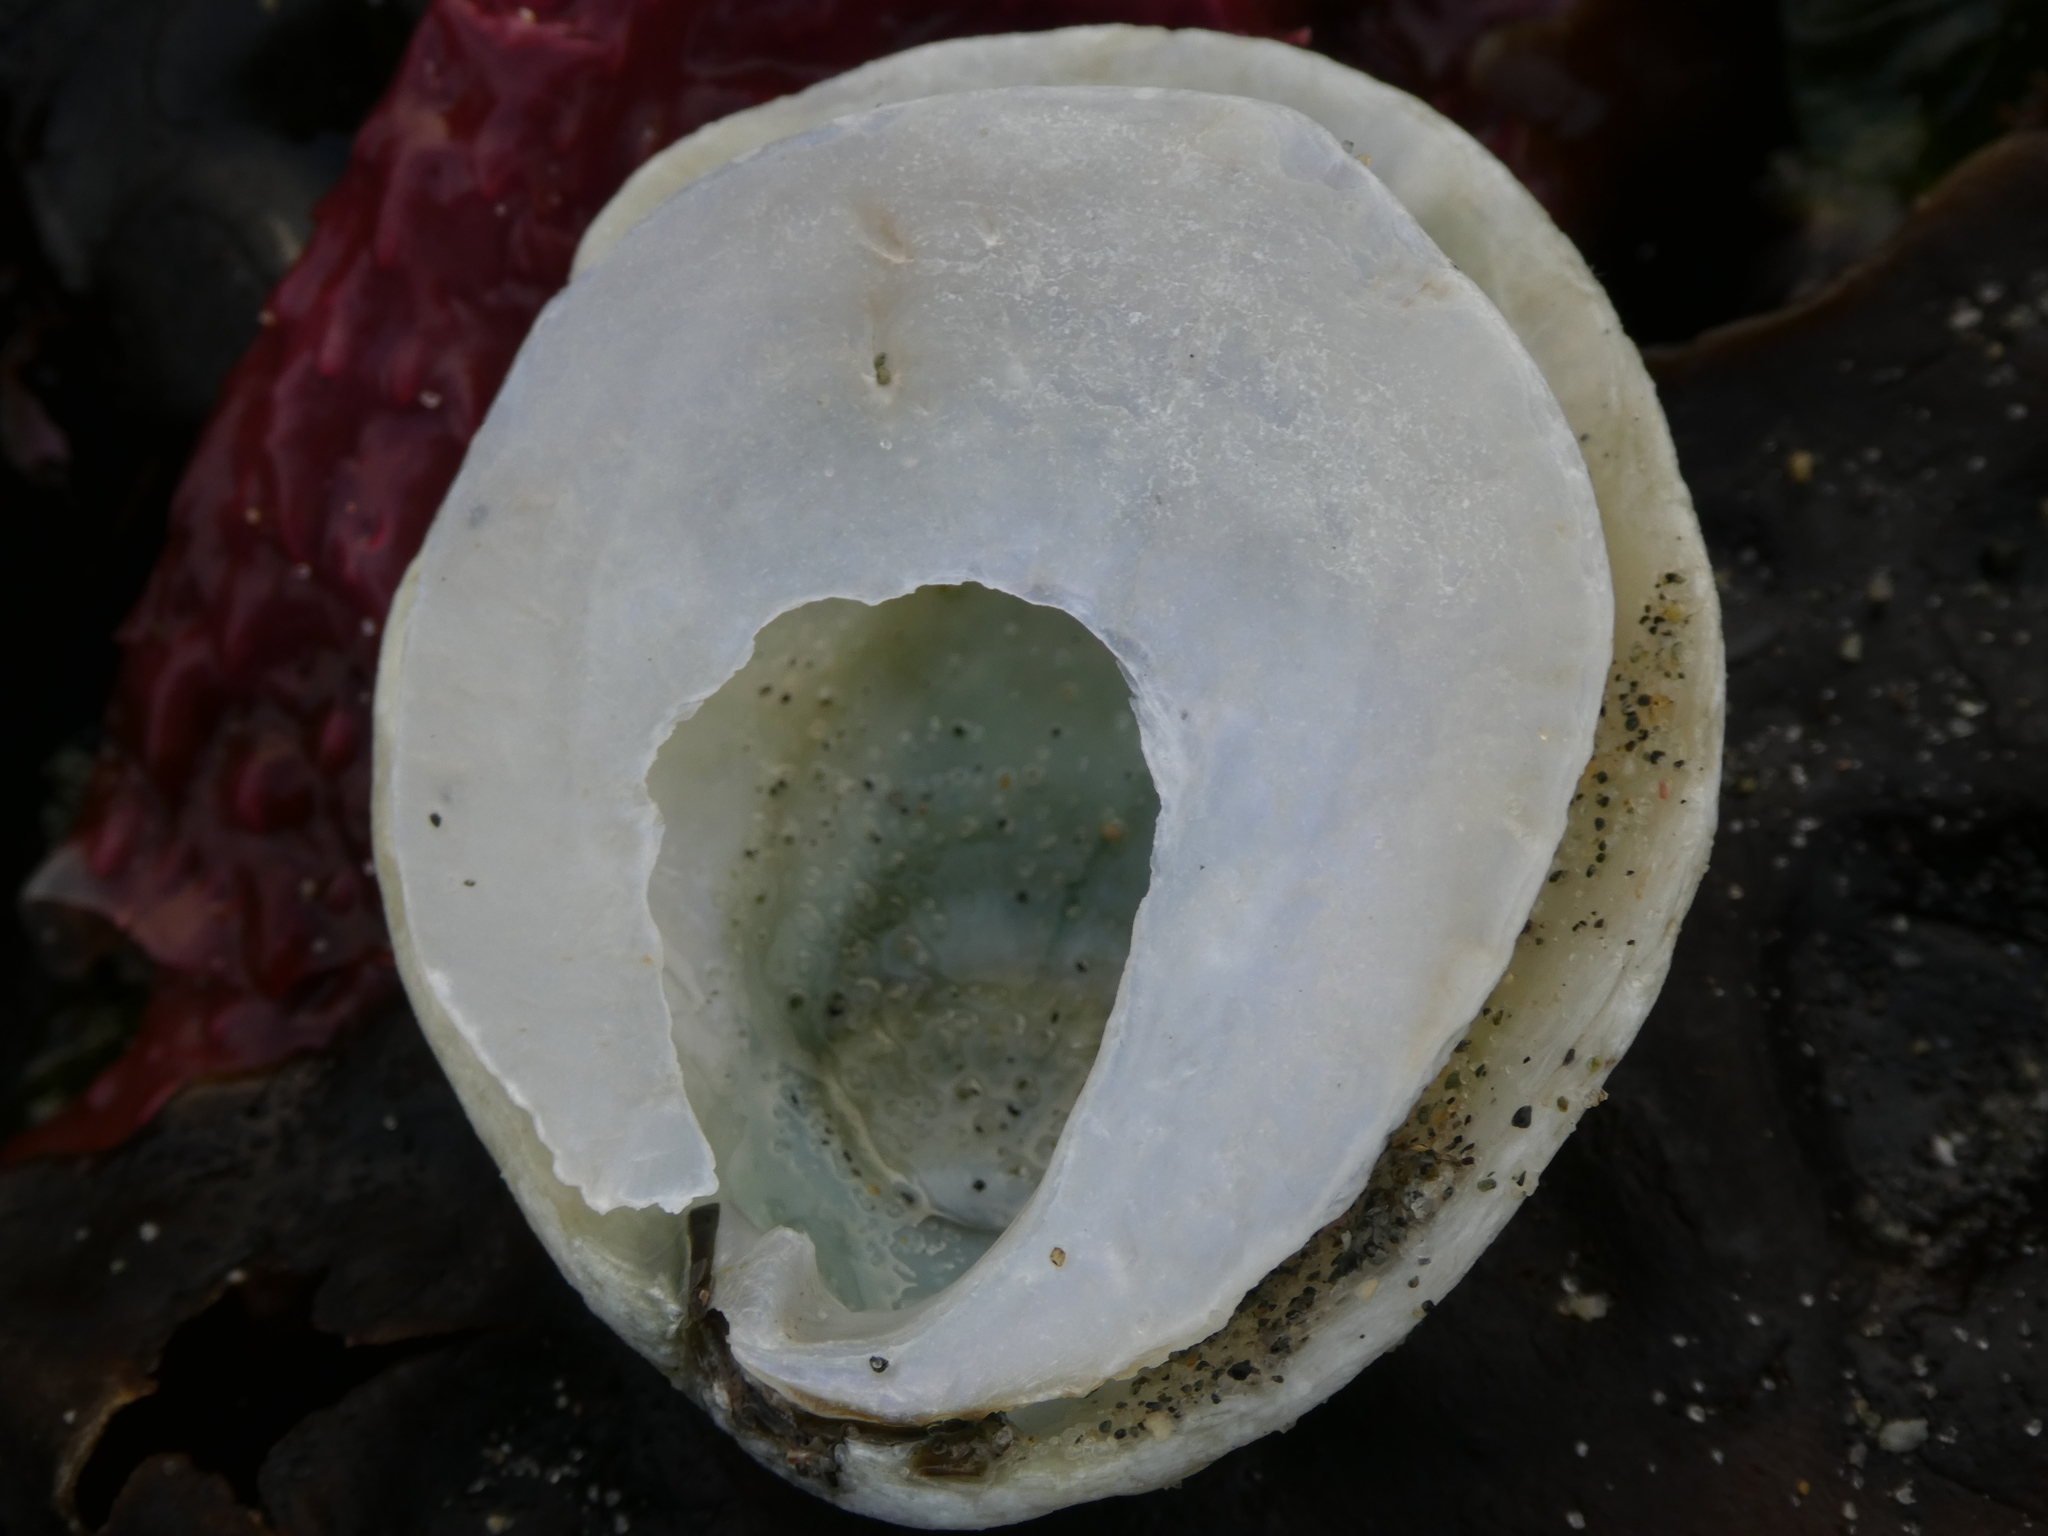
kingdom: Animalia
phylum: Mollusca
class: Bivalvia
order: Pectinida
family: Anomiidae
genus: Pododesmus
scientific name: Pododesmus macrochisma
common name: Alaska jingle
